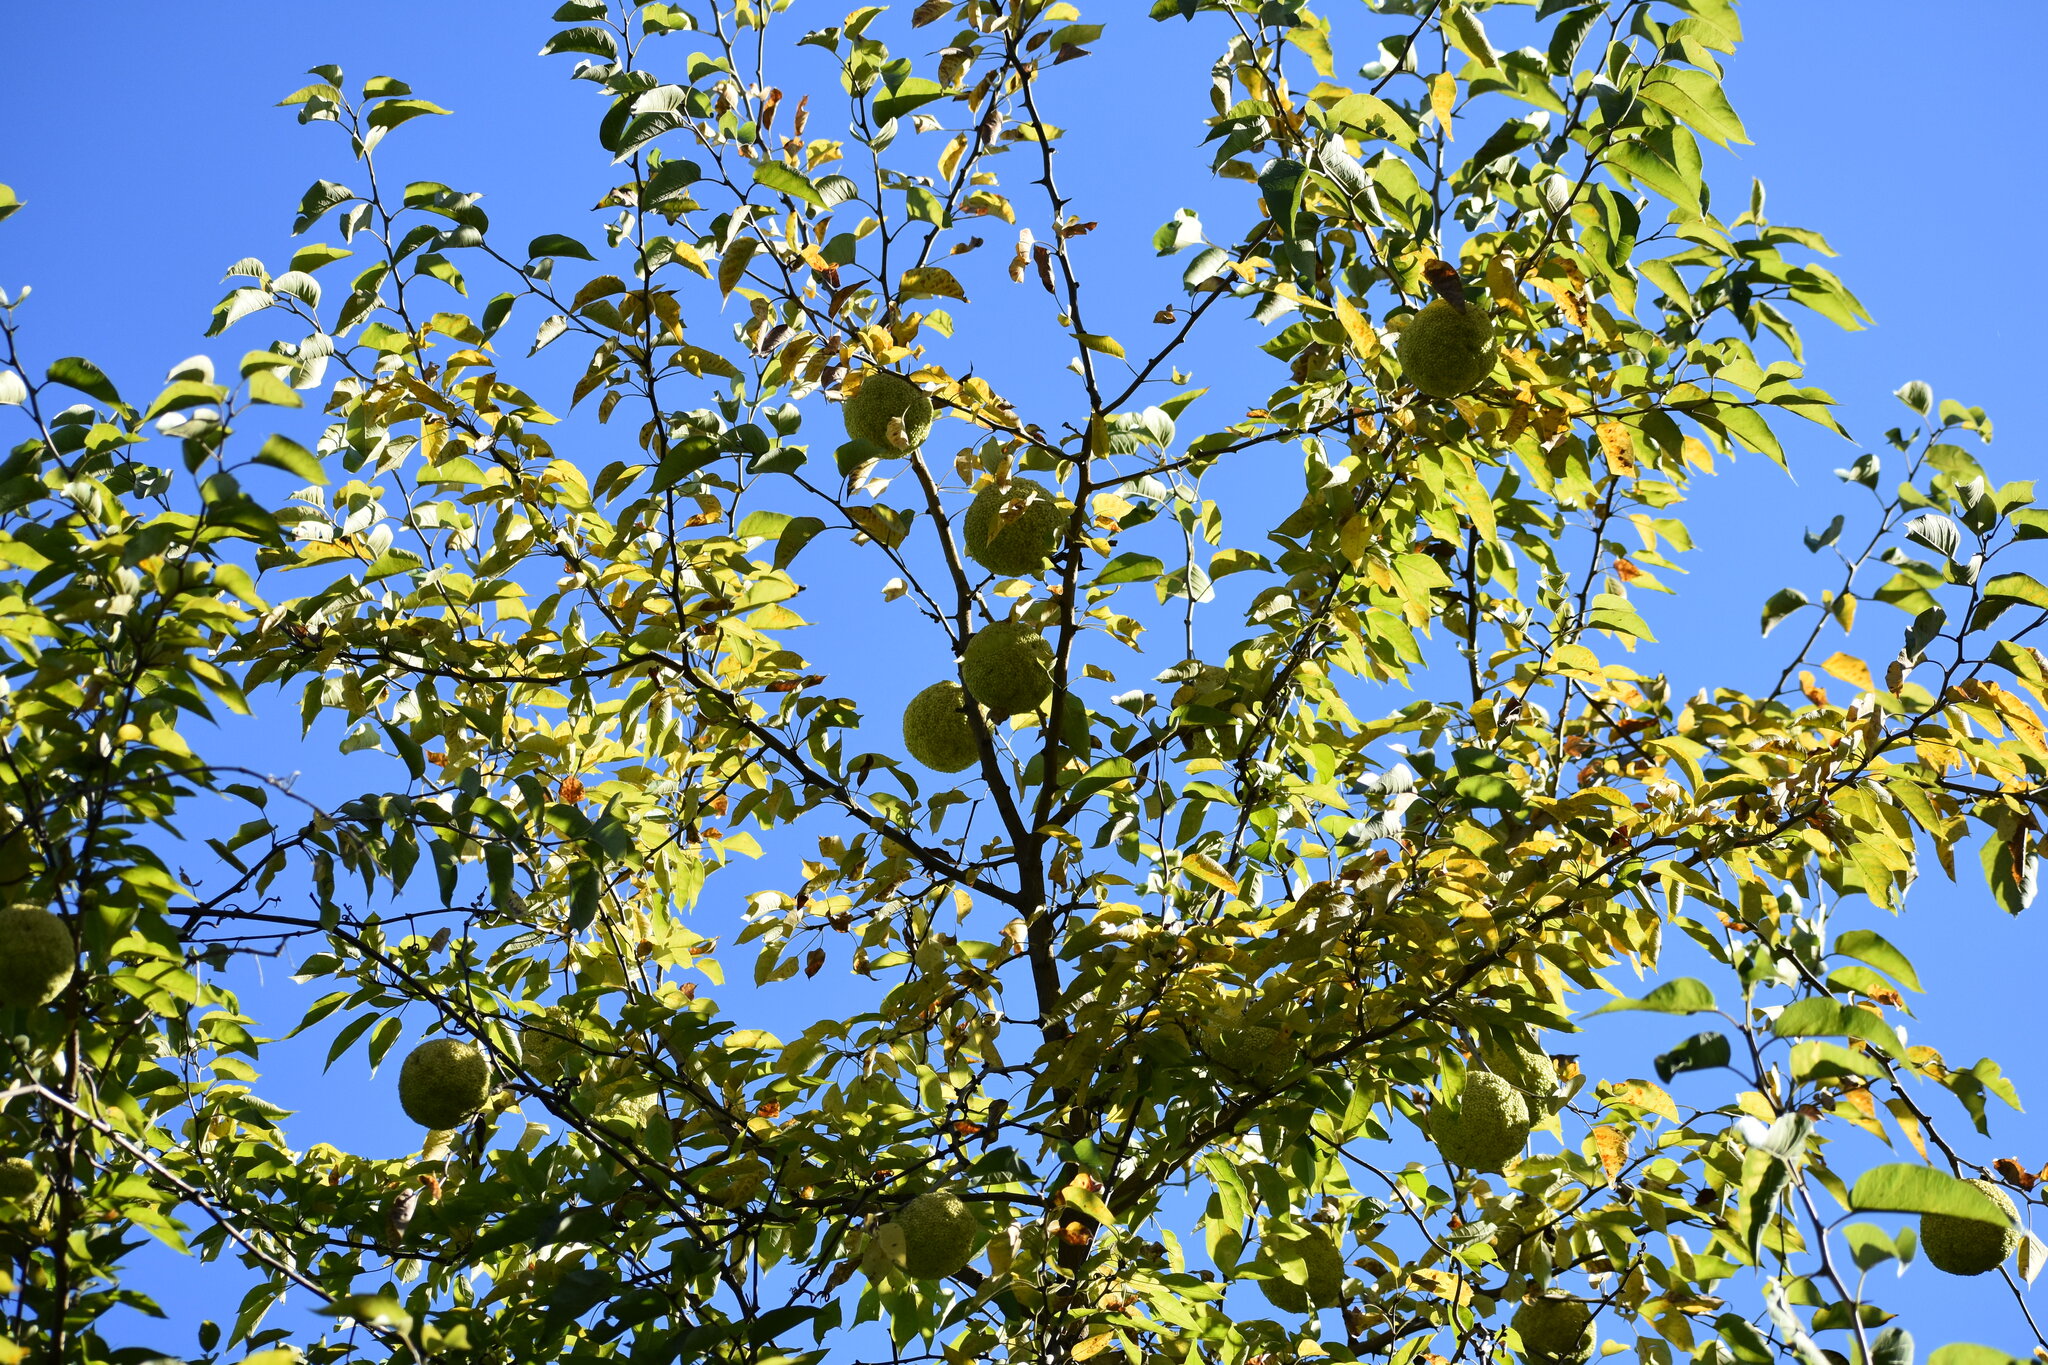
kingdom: Plantae
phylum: Tracheophyta
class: Magnoliopsida
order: Rosales
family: Moraceae
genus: Maclura
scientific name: Maclura pomifera
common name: Osage-orange
